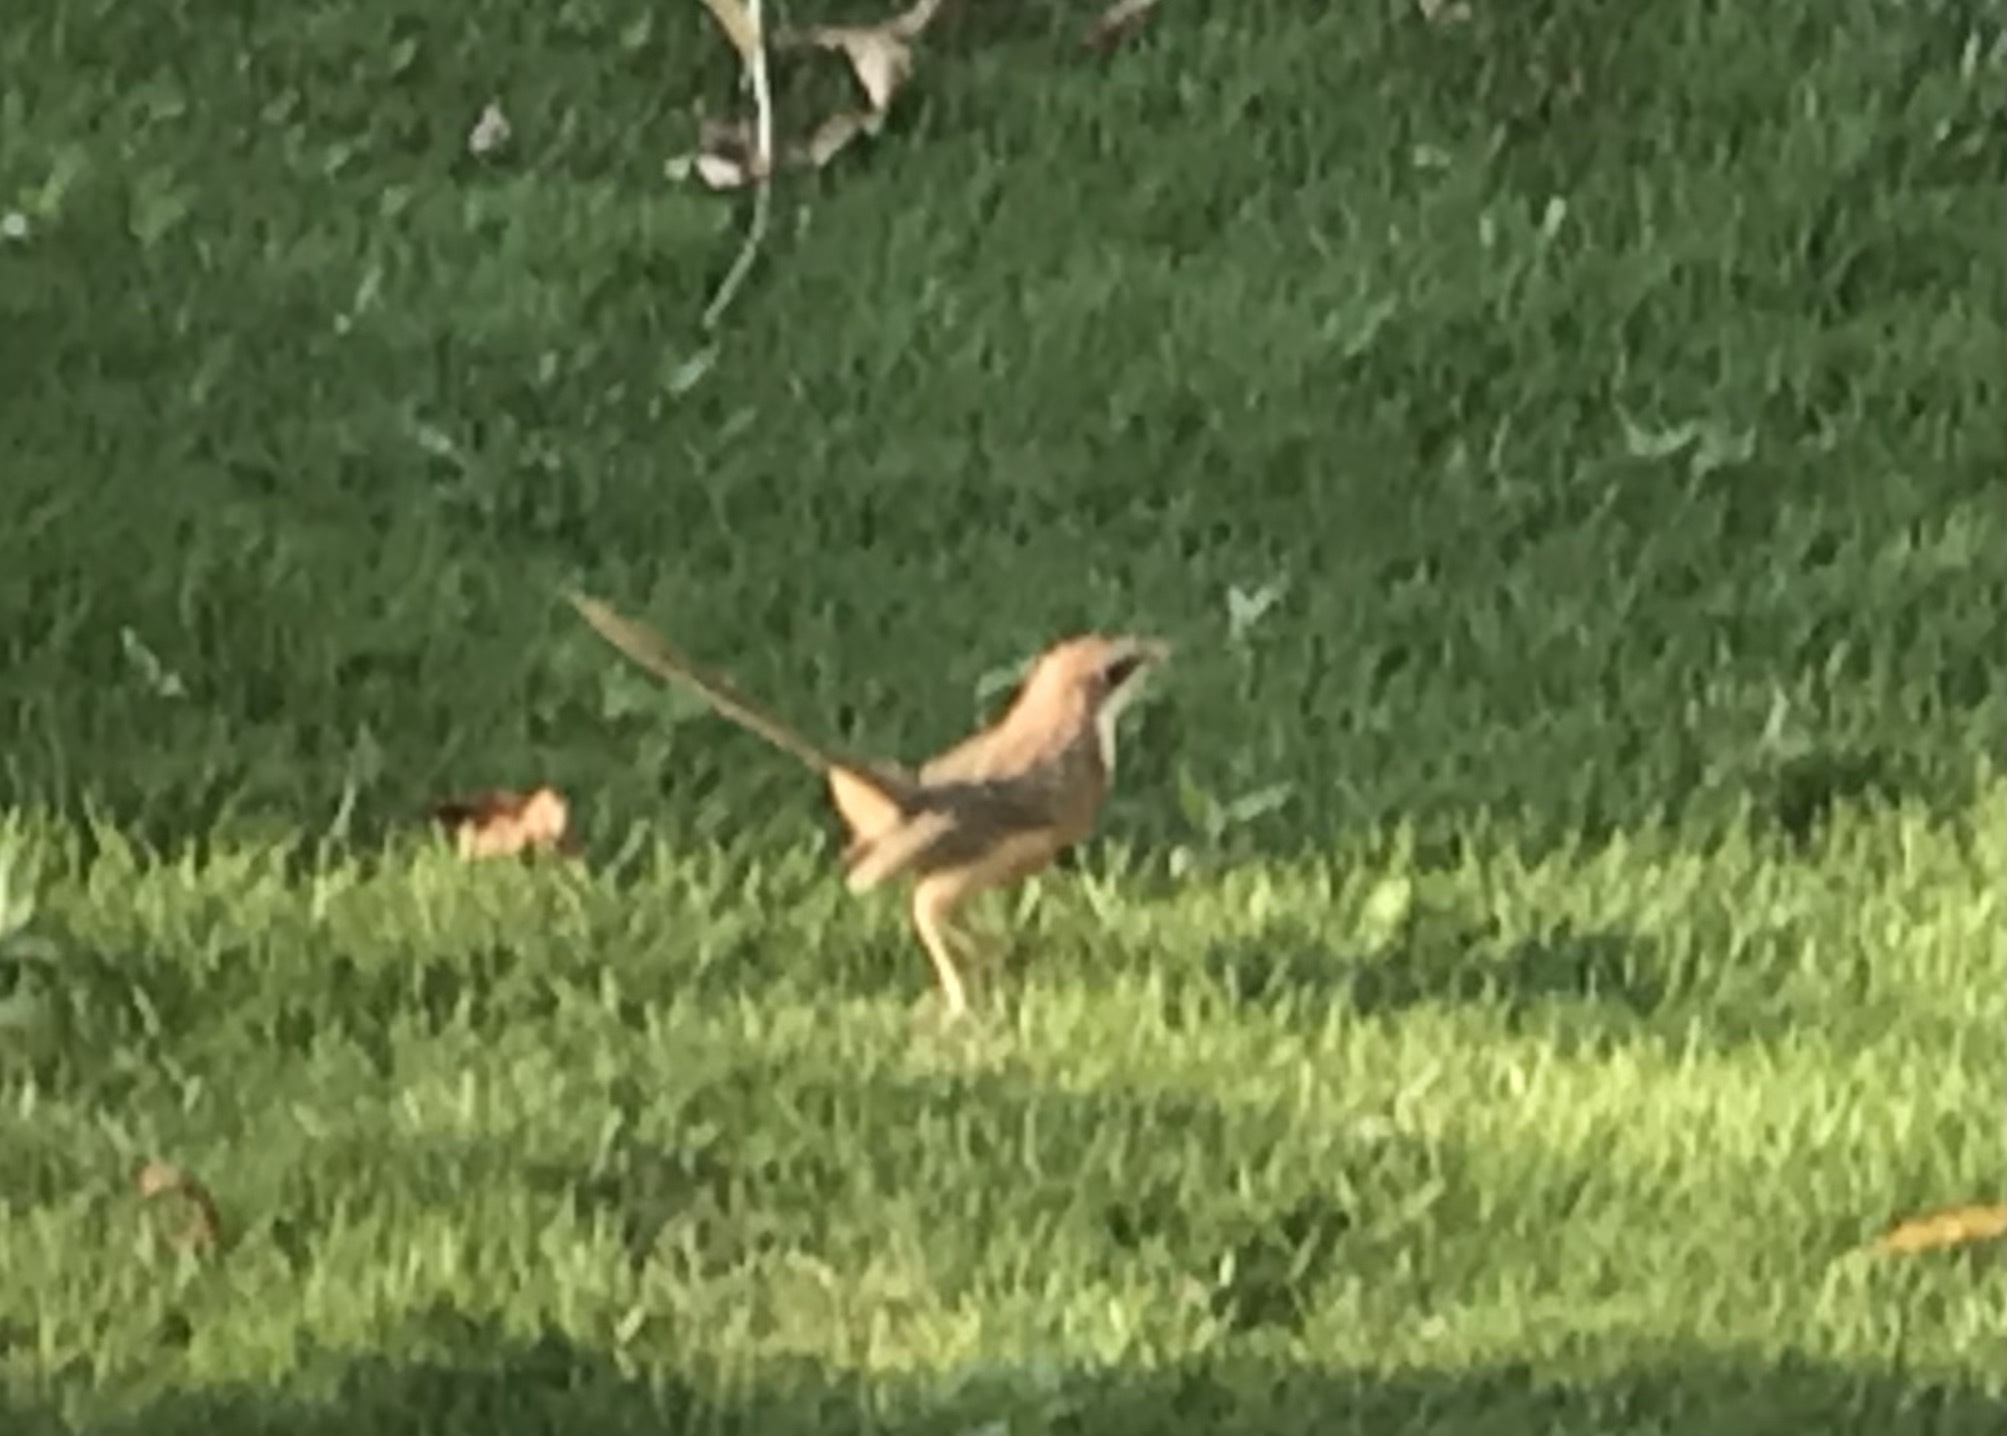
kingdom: Animalia
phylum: Chordata
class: Aves
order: Passeriformes
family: Leiothrichidae
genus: Turdoides
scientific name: Turdoides gularis
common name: White-throated babbler
